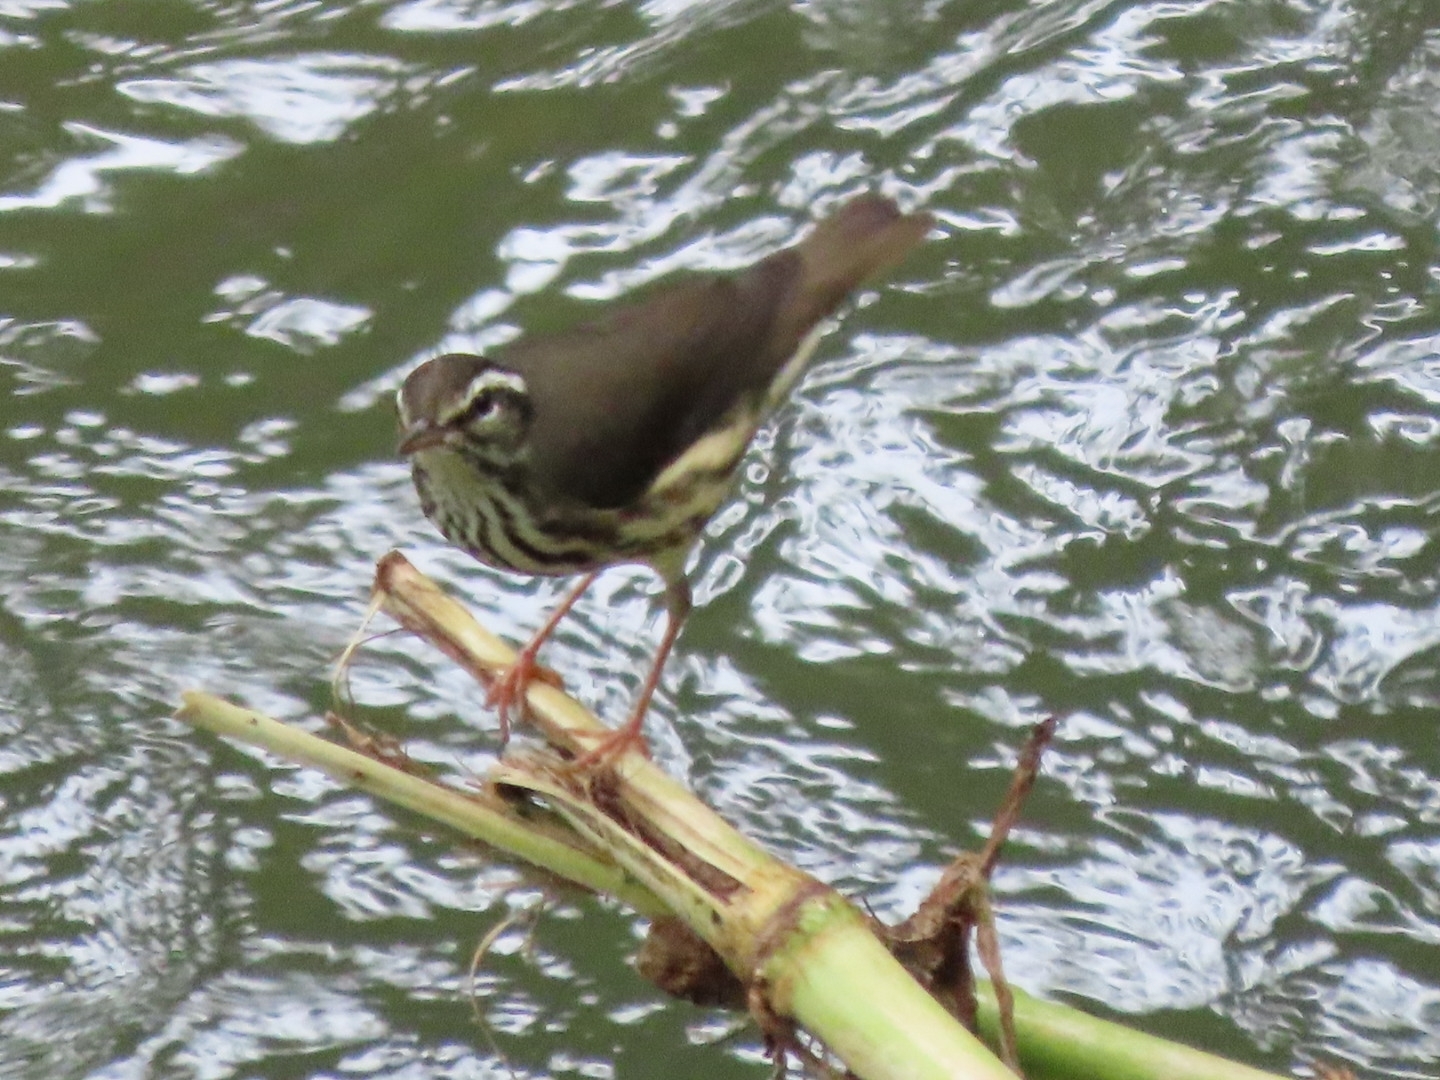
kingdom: Animalia
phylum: Chordata
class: Aves
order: Passeriformes
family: Parulidae
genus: Parkesia
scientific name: Parkesia motacilla
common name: Louisiana waterthrush
